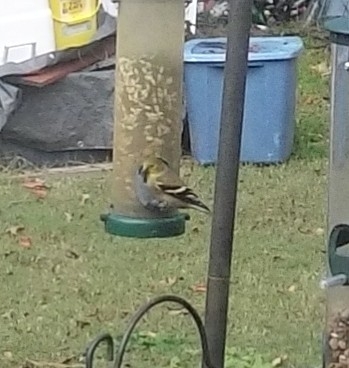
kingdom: Animalia
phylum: Chordata
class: Aves
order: Passeriformes
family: Parulidae
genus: Setophaga
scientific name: Setophaga pinus
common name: Pine warbler
